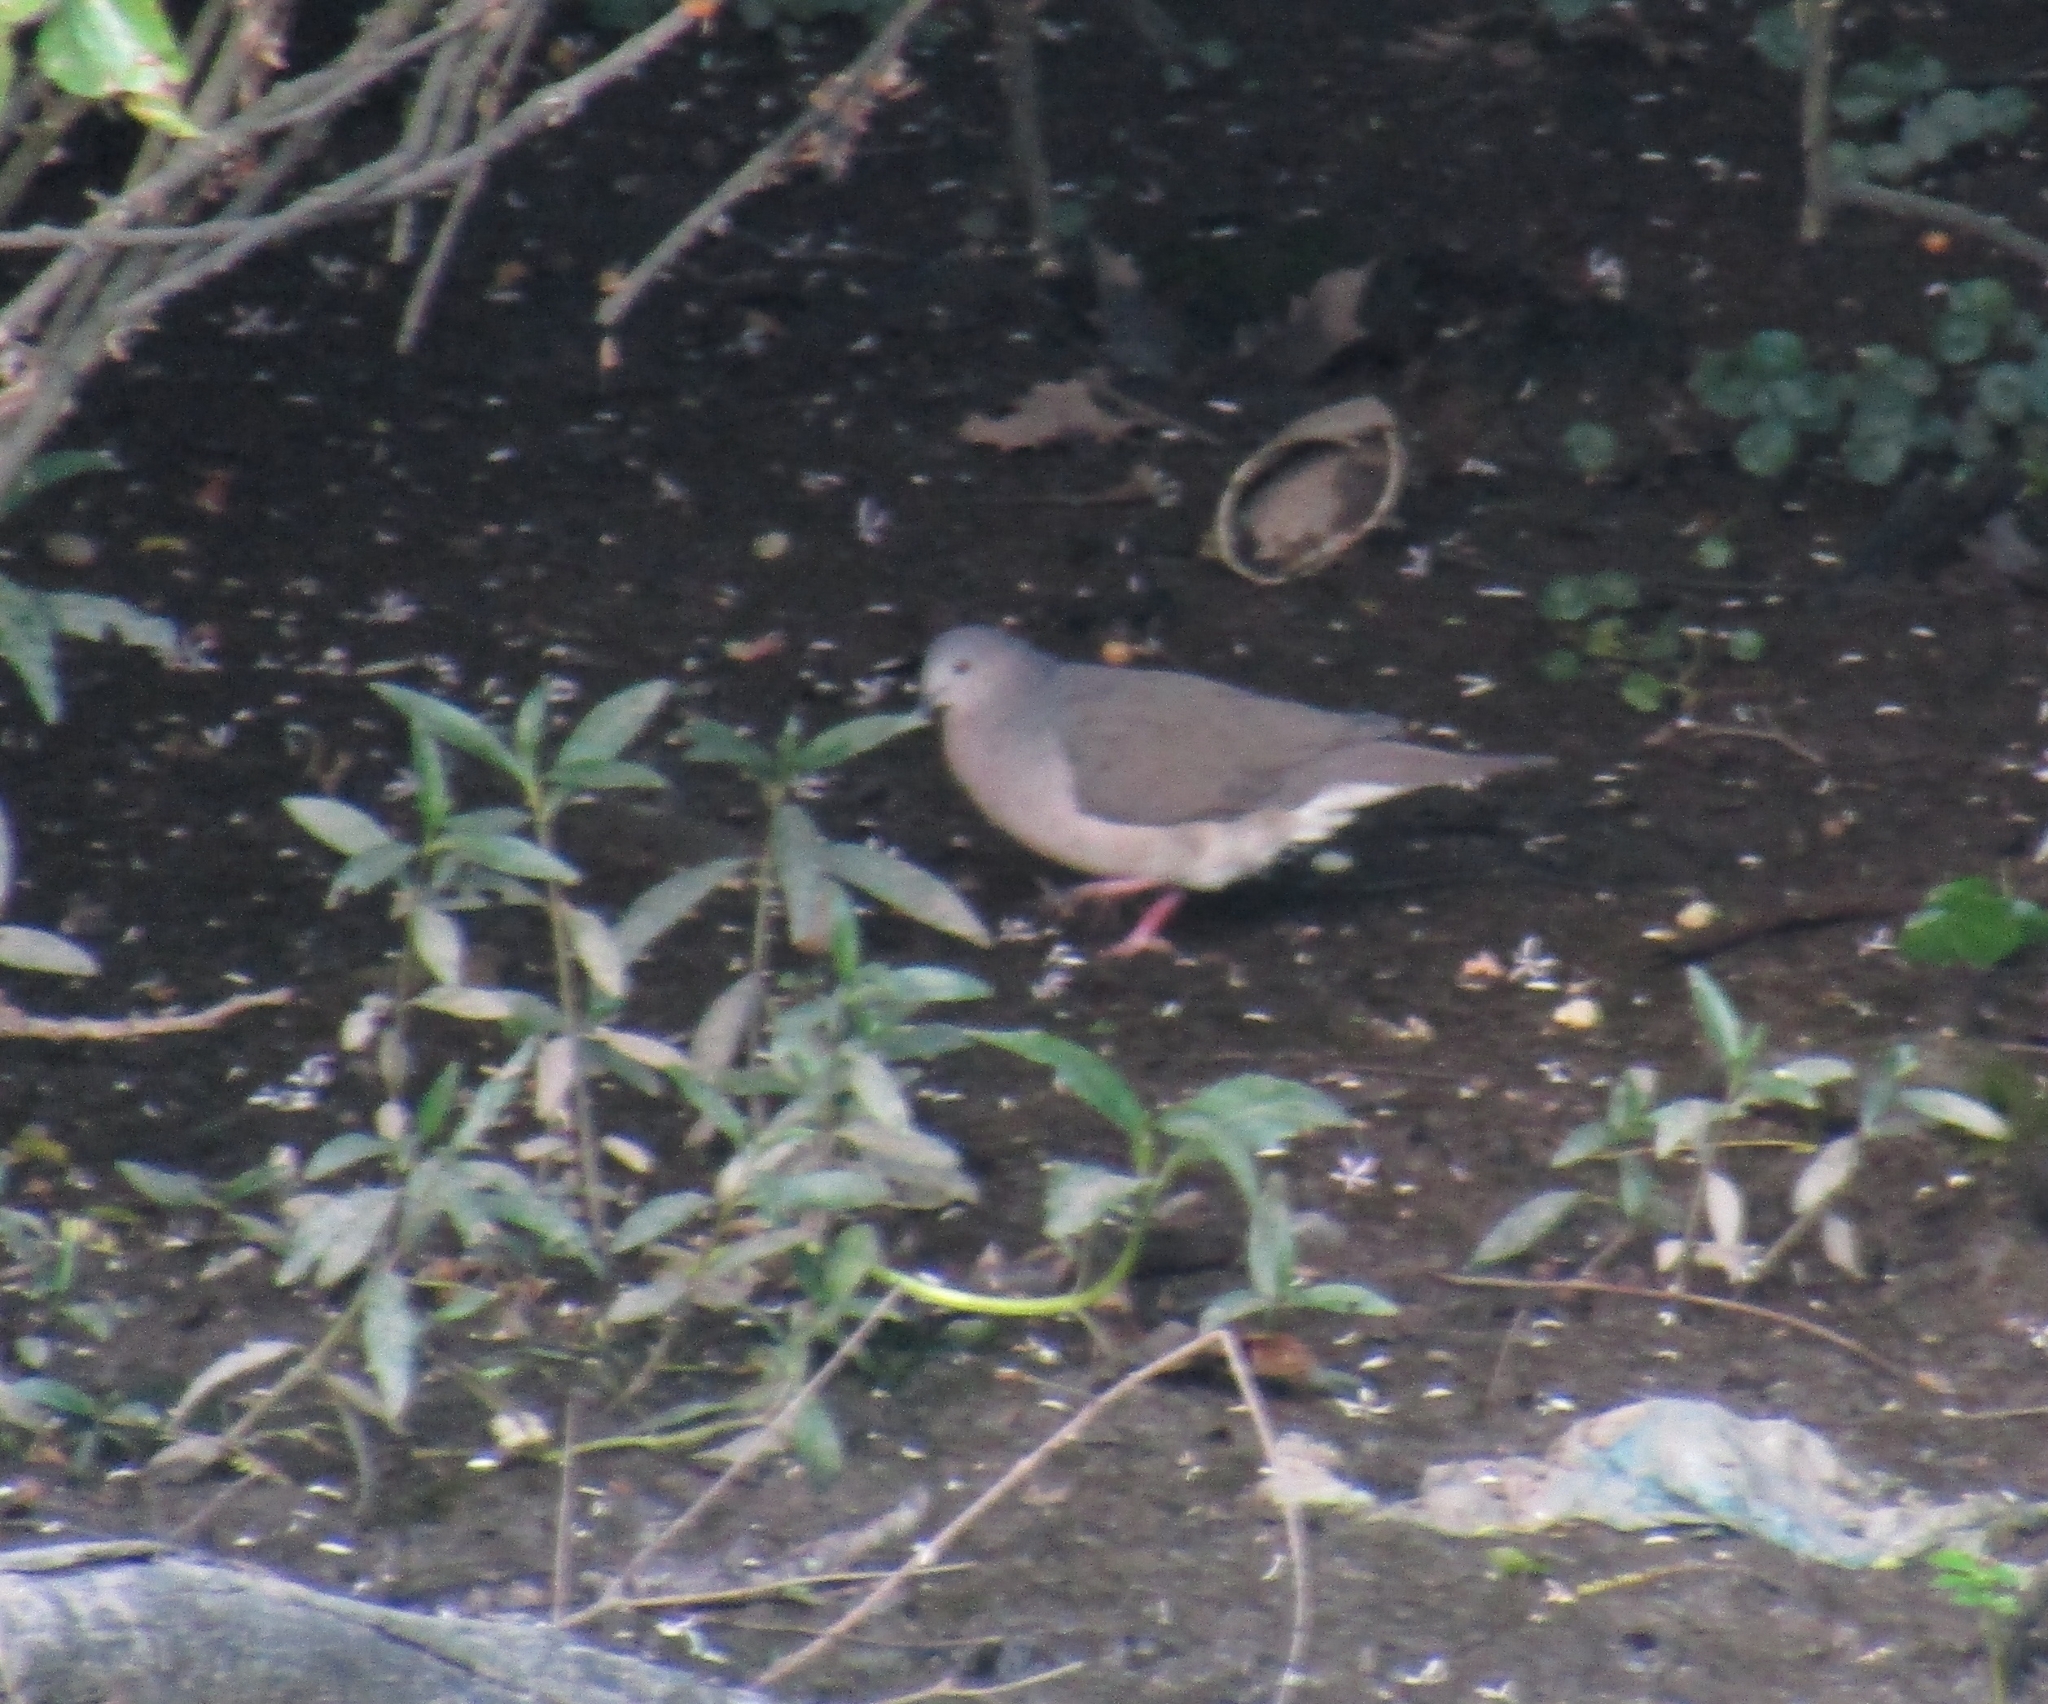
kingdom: Animalia
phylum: Chordata
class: Aves
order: Columbiformes
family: Columbidae
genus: Leptotila
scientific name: Leptotila verreauxi
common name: White-tipped dove
